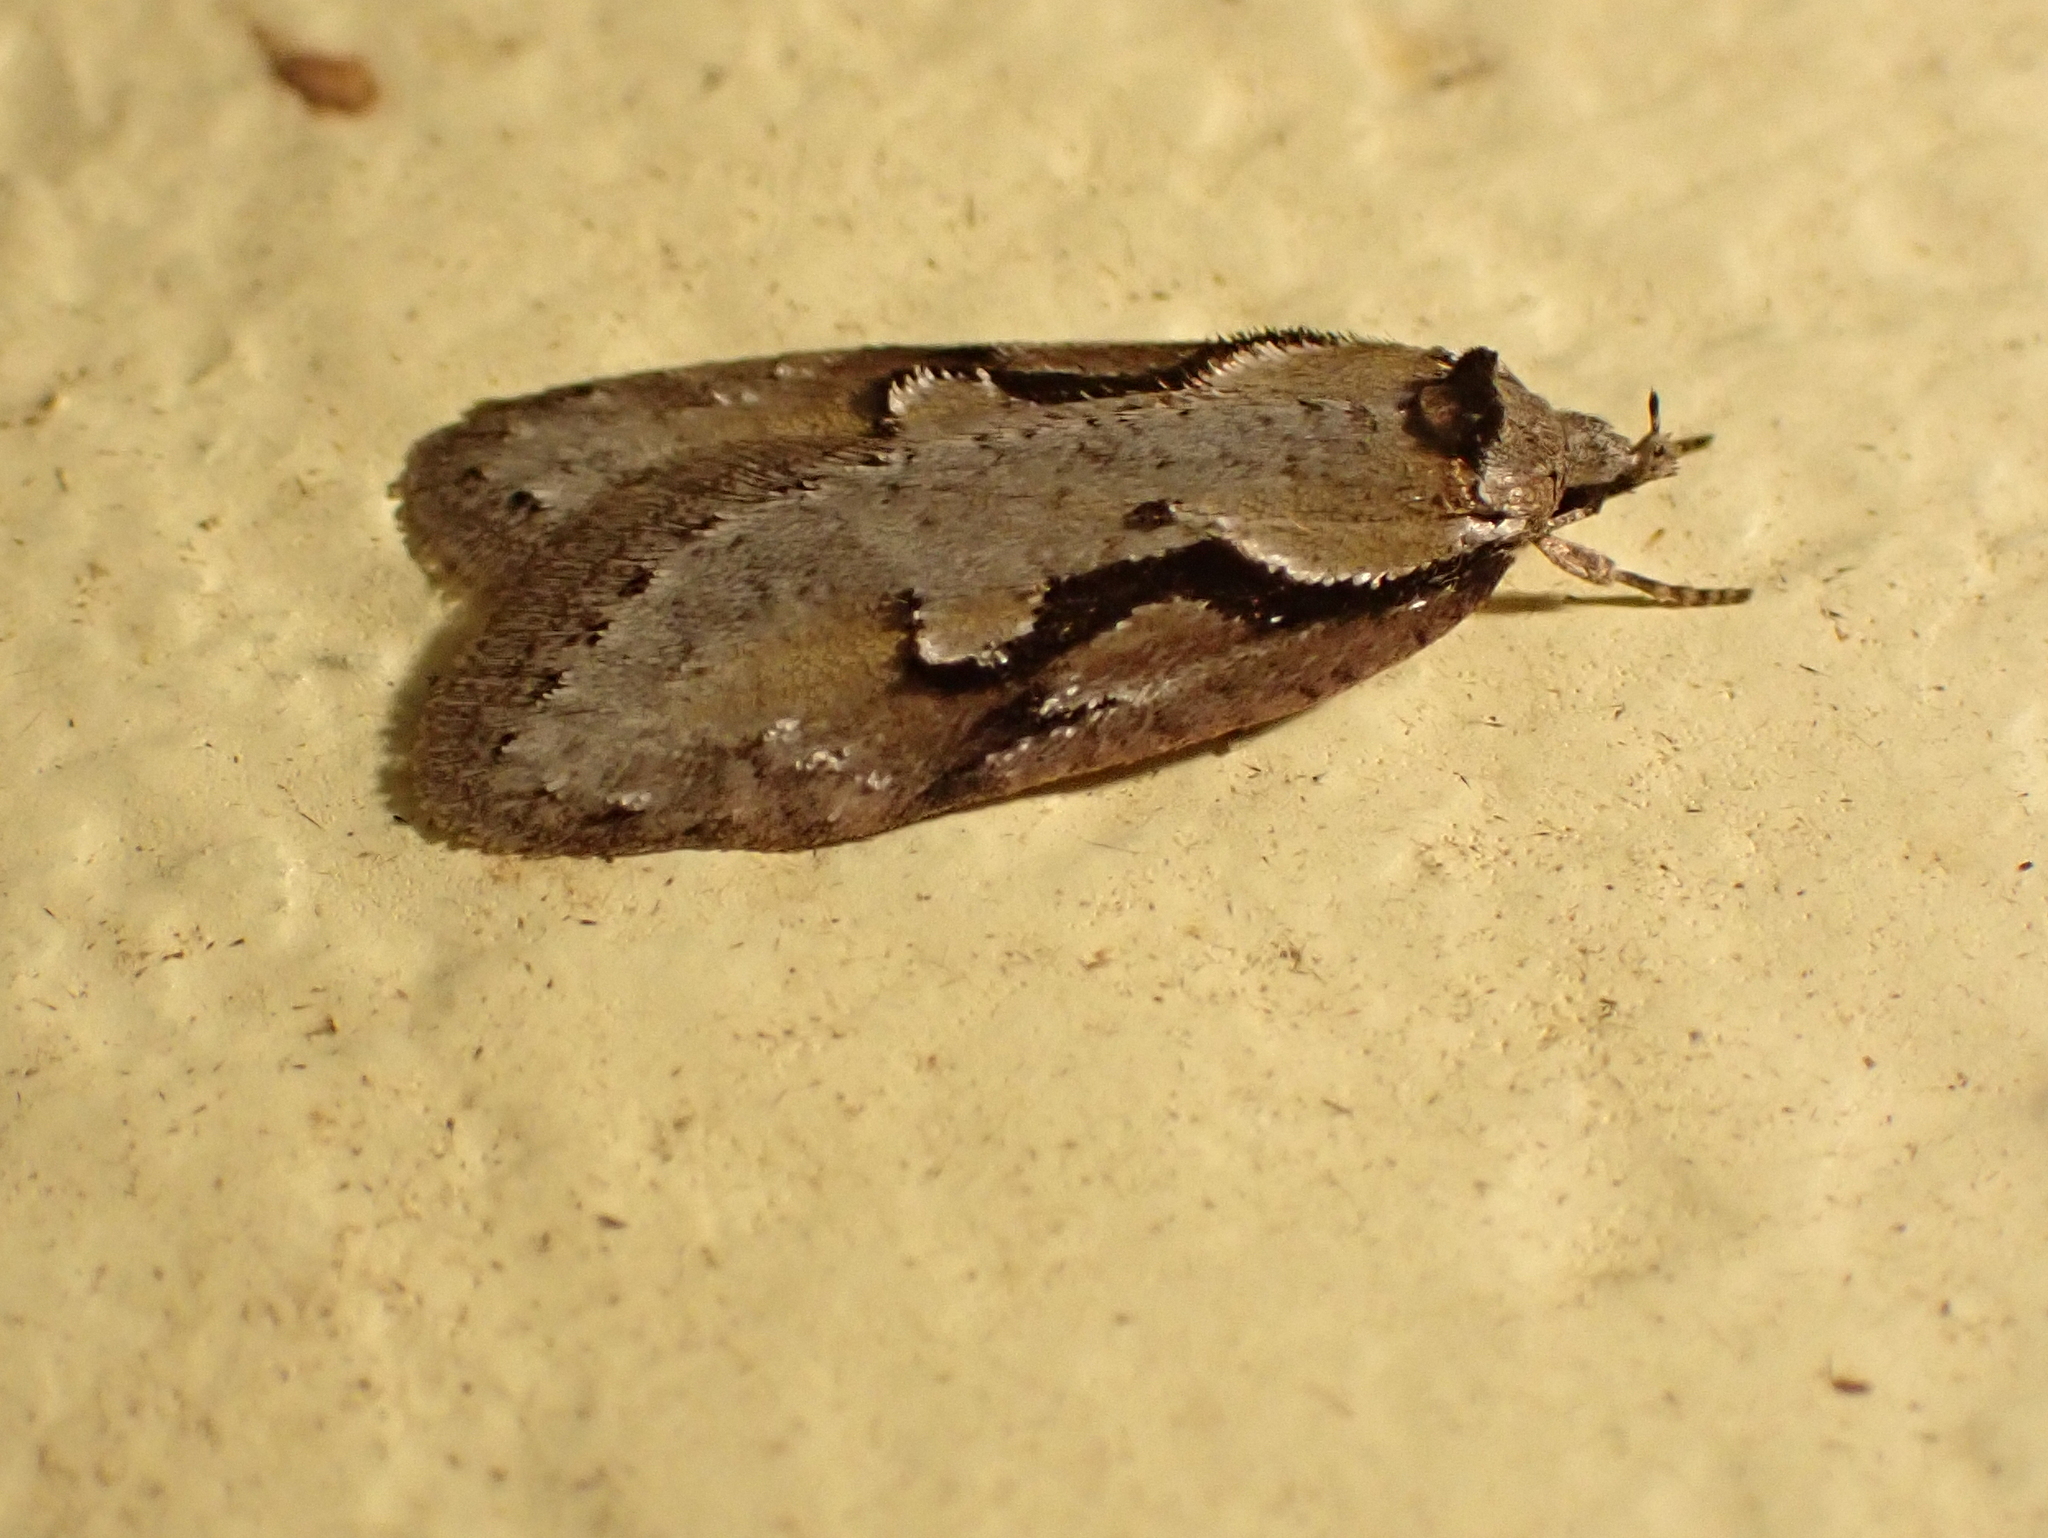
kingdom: Animalia
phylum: Arthropoda
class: Insecta
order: Lepidoptera
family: Depressariidae
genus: Semioscopis
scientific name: Semioscopis packardella
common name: Packard's concealer moth
